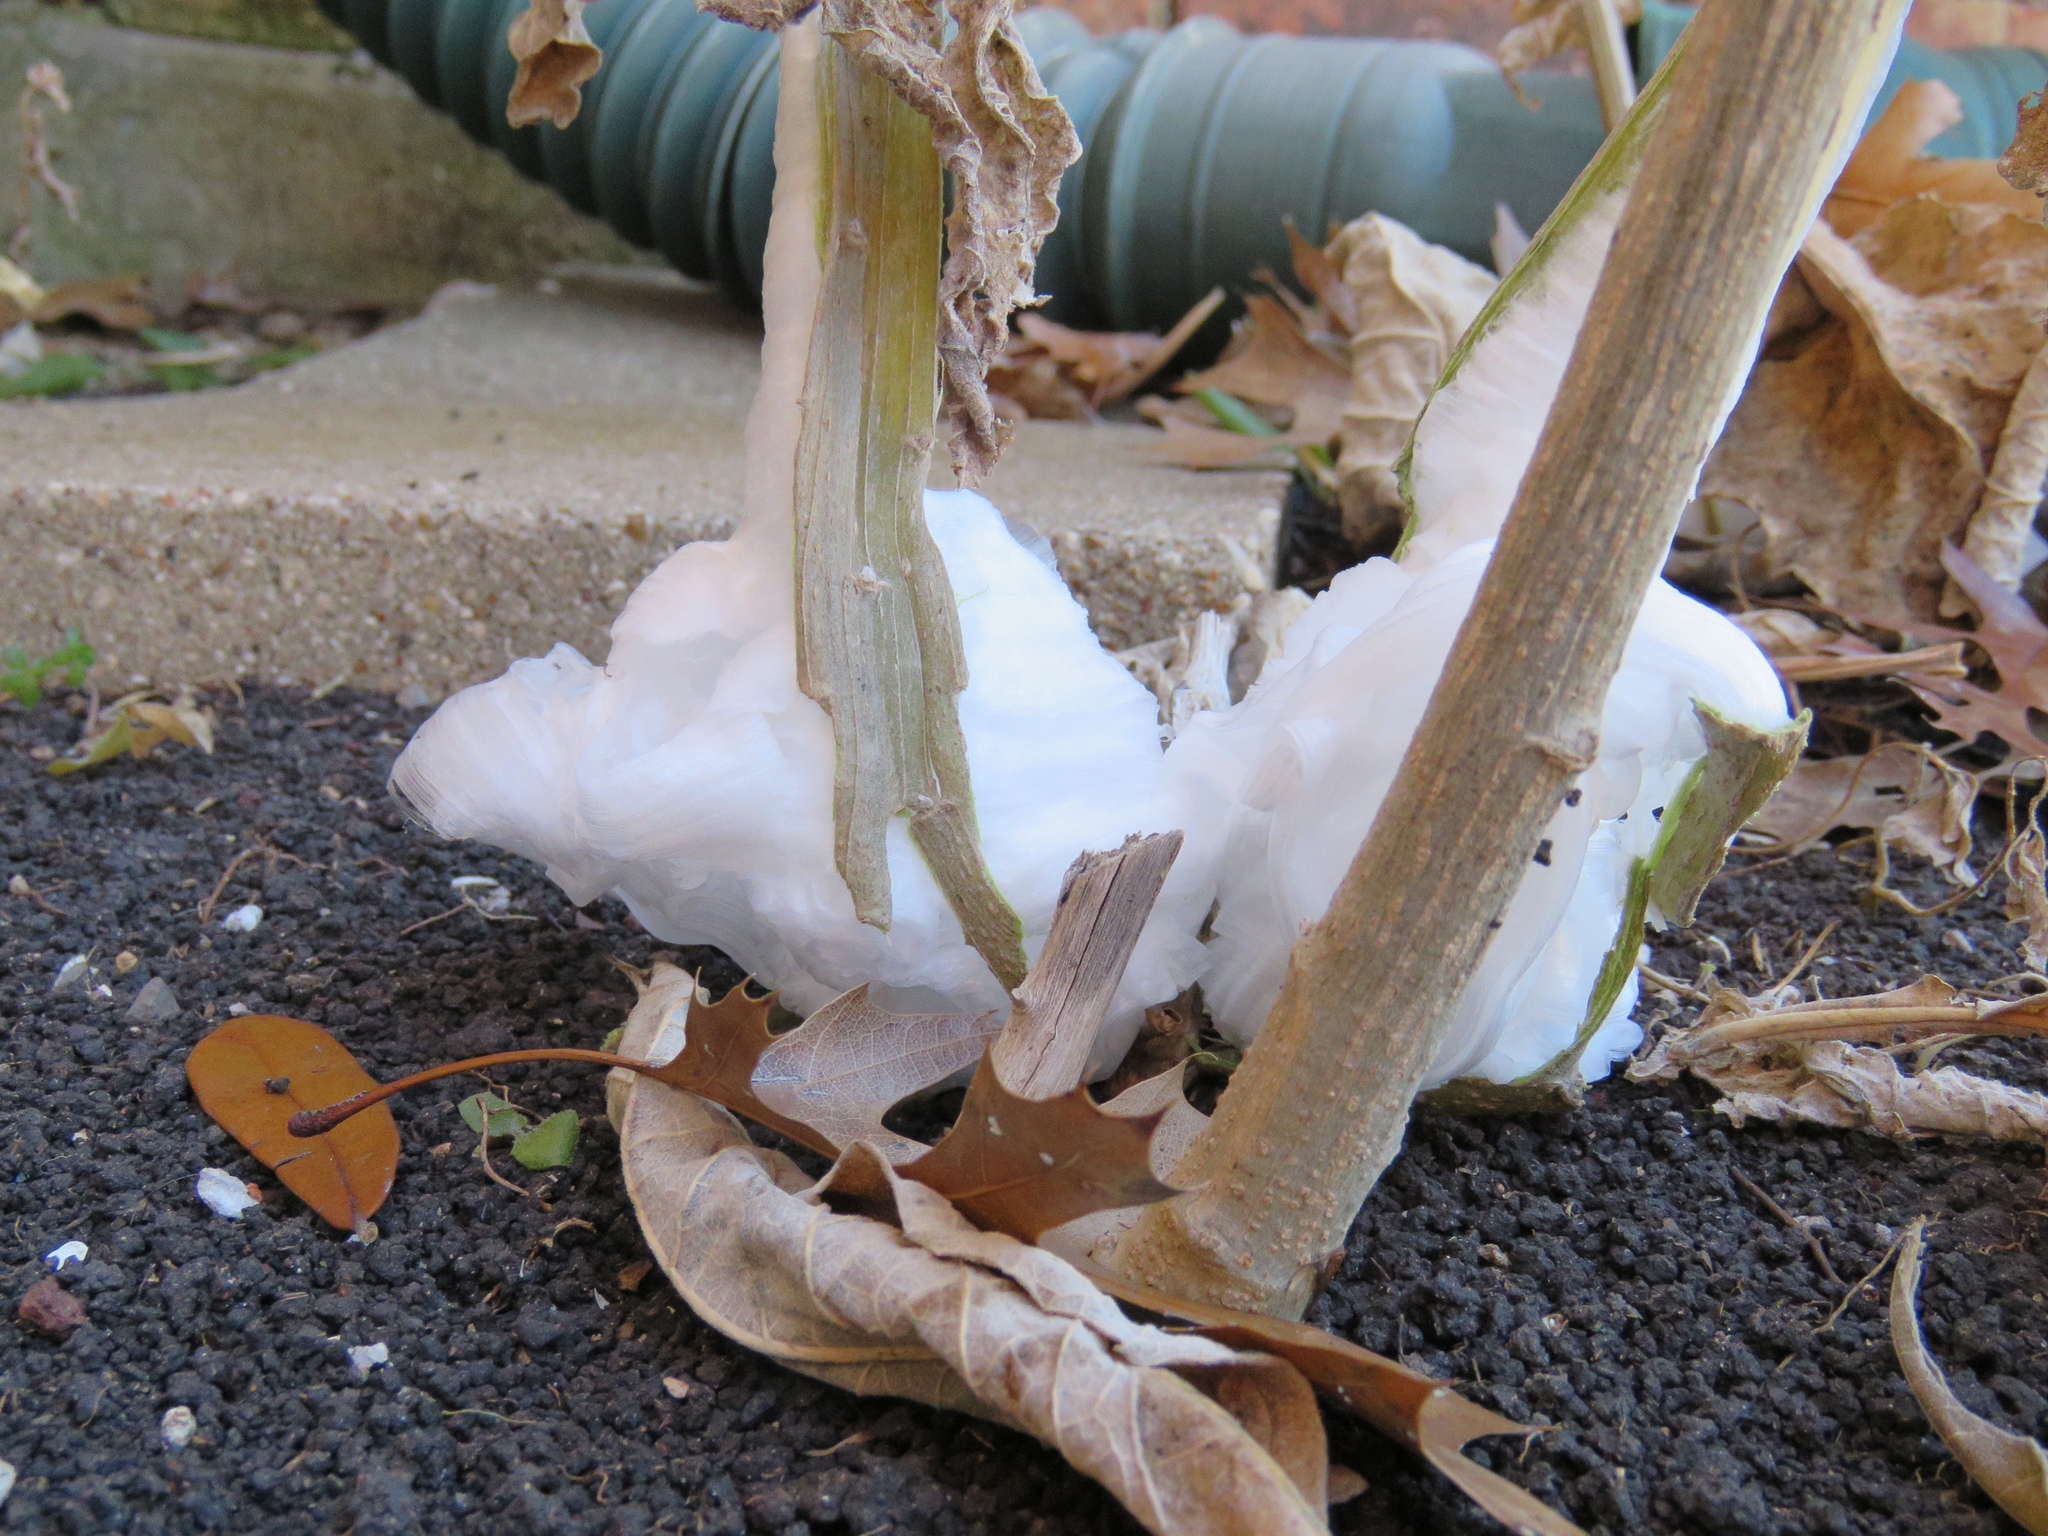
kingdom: Plantae
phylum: Tracheophyta
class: Magnoliopsida
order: Asterales
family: Asteraceae
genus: Verbesina
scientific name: Verbesina virginica
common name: Frostweed
